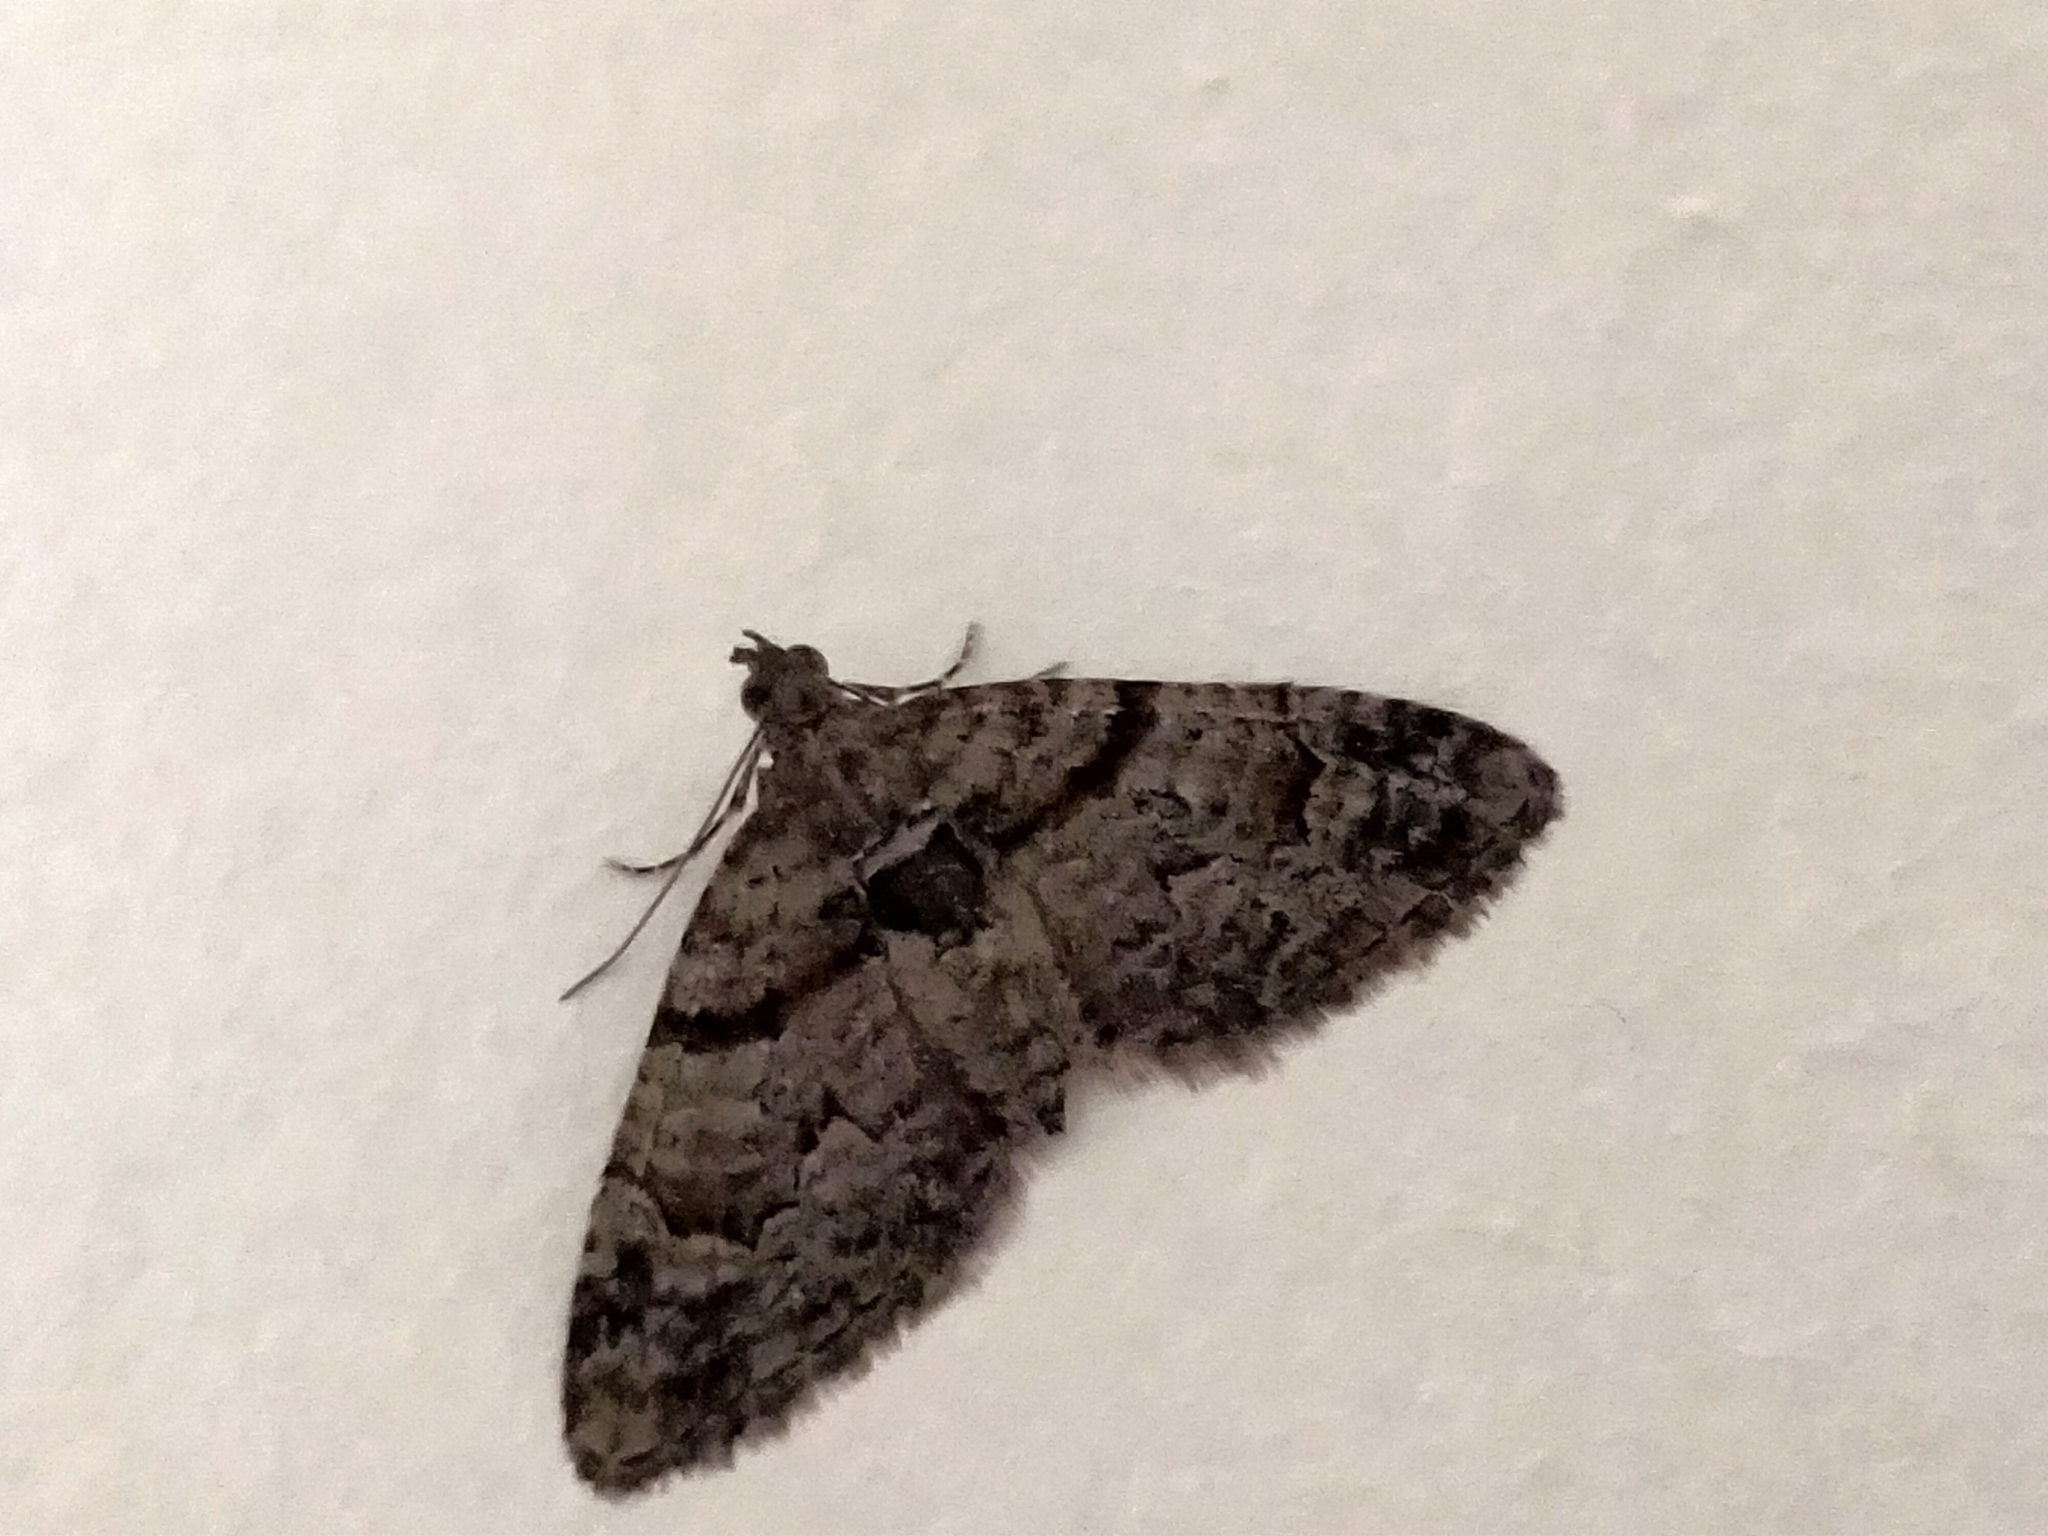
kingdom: Animalia
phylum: Arthropoda
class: Insecta
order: Lepidoptera
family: Geometridae
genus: Phrissogonus
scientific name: Phrissogonus laticostata
